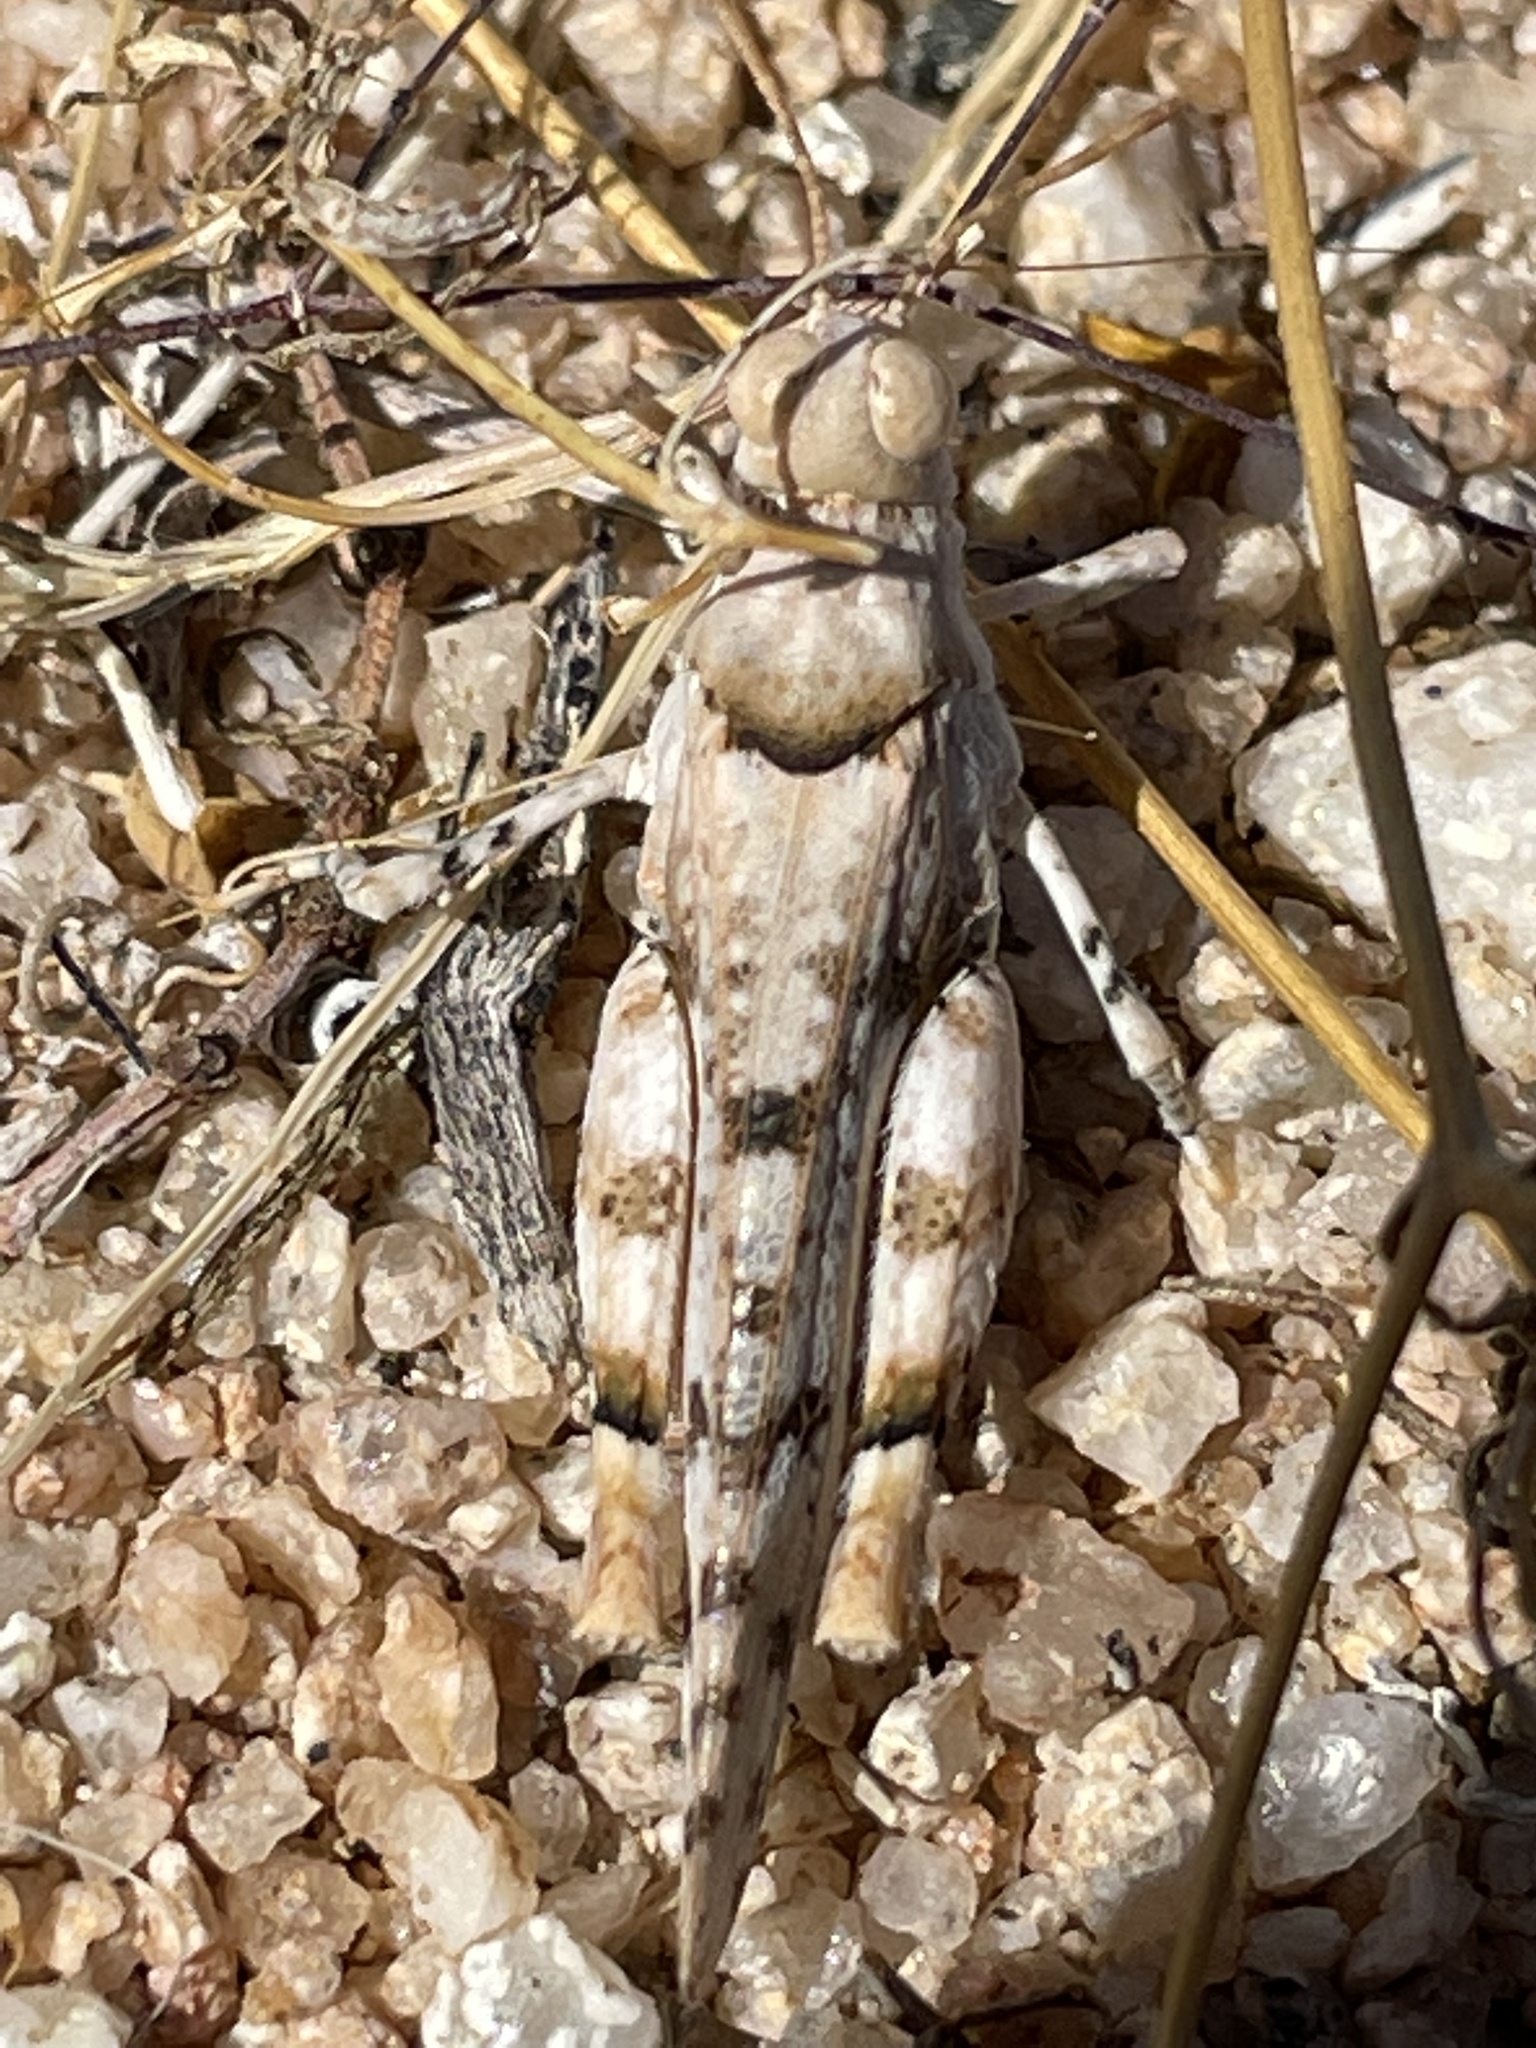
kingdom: Animalia
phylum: Arthropoda
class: Insecta
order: Orthoptera
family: Acrididae
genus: Cibolacris
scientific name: Cibolacris parviceps
